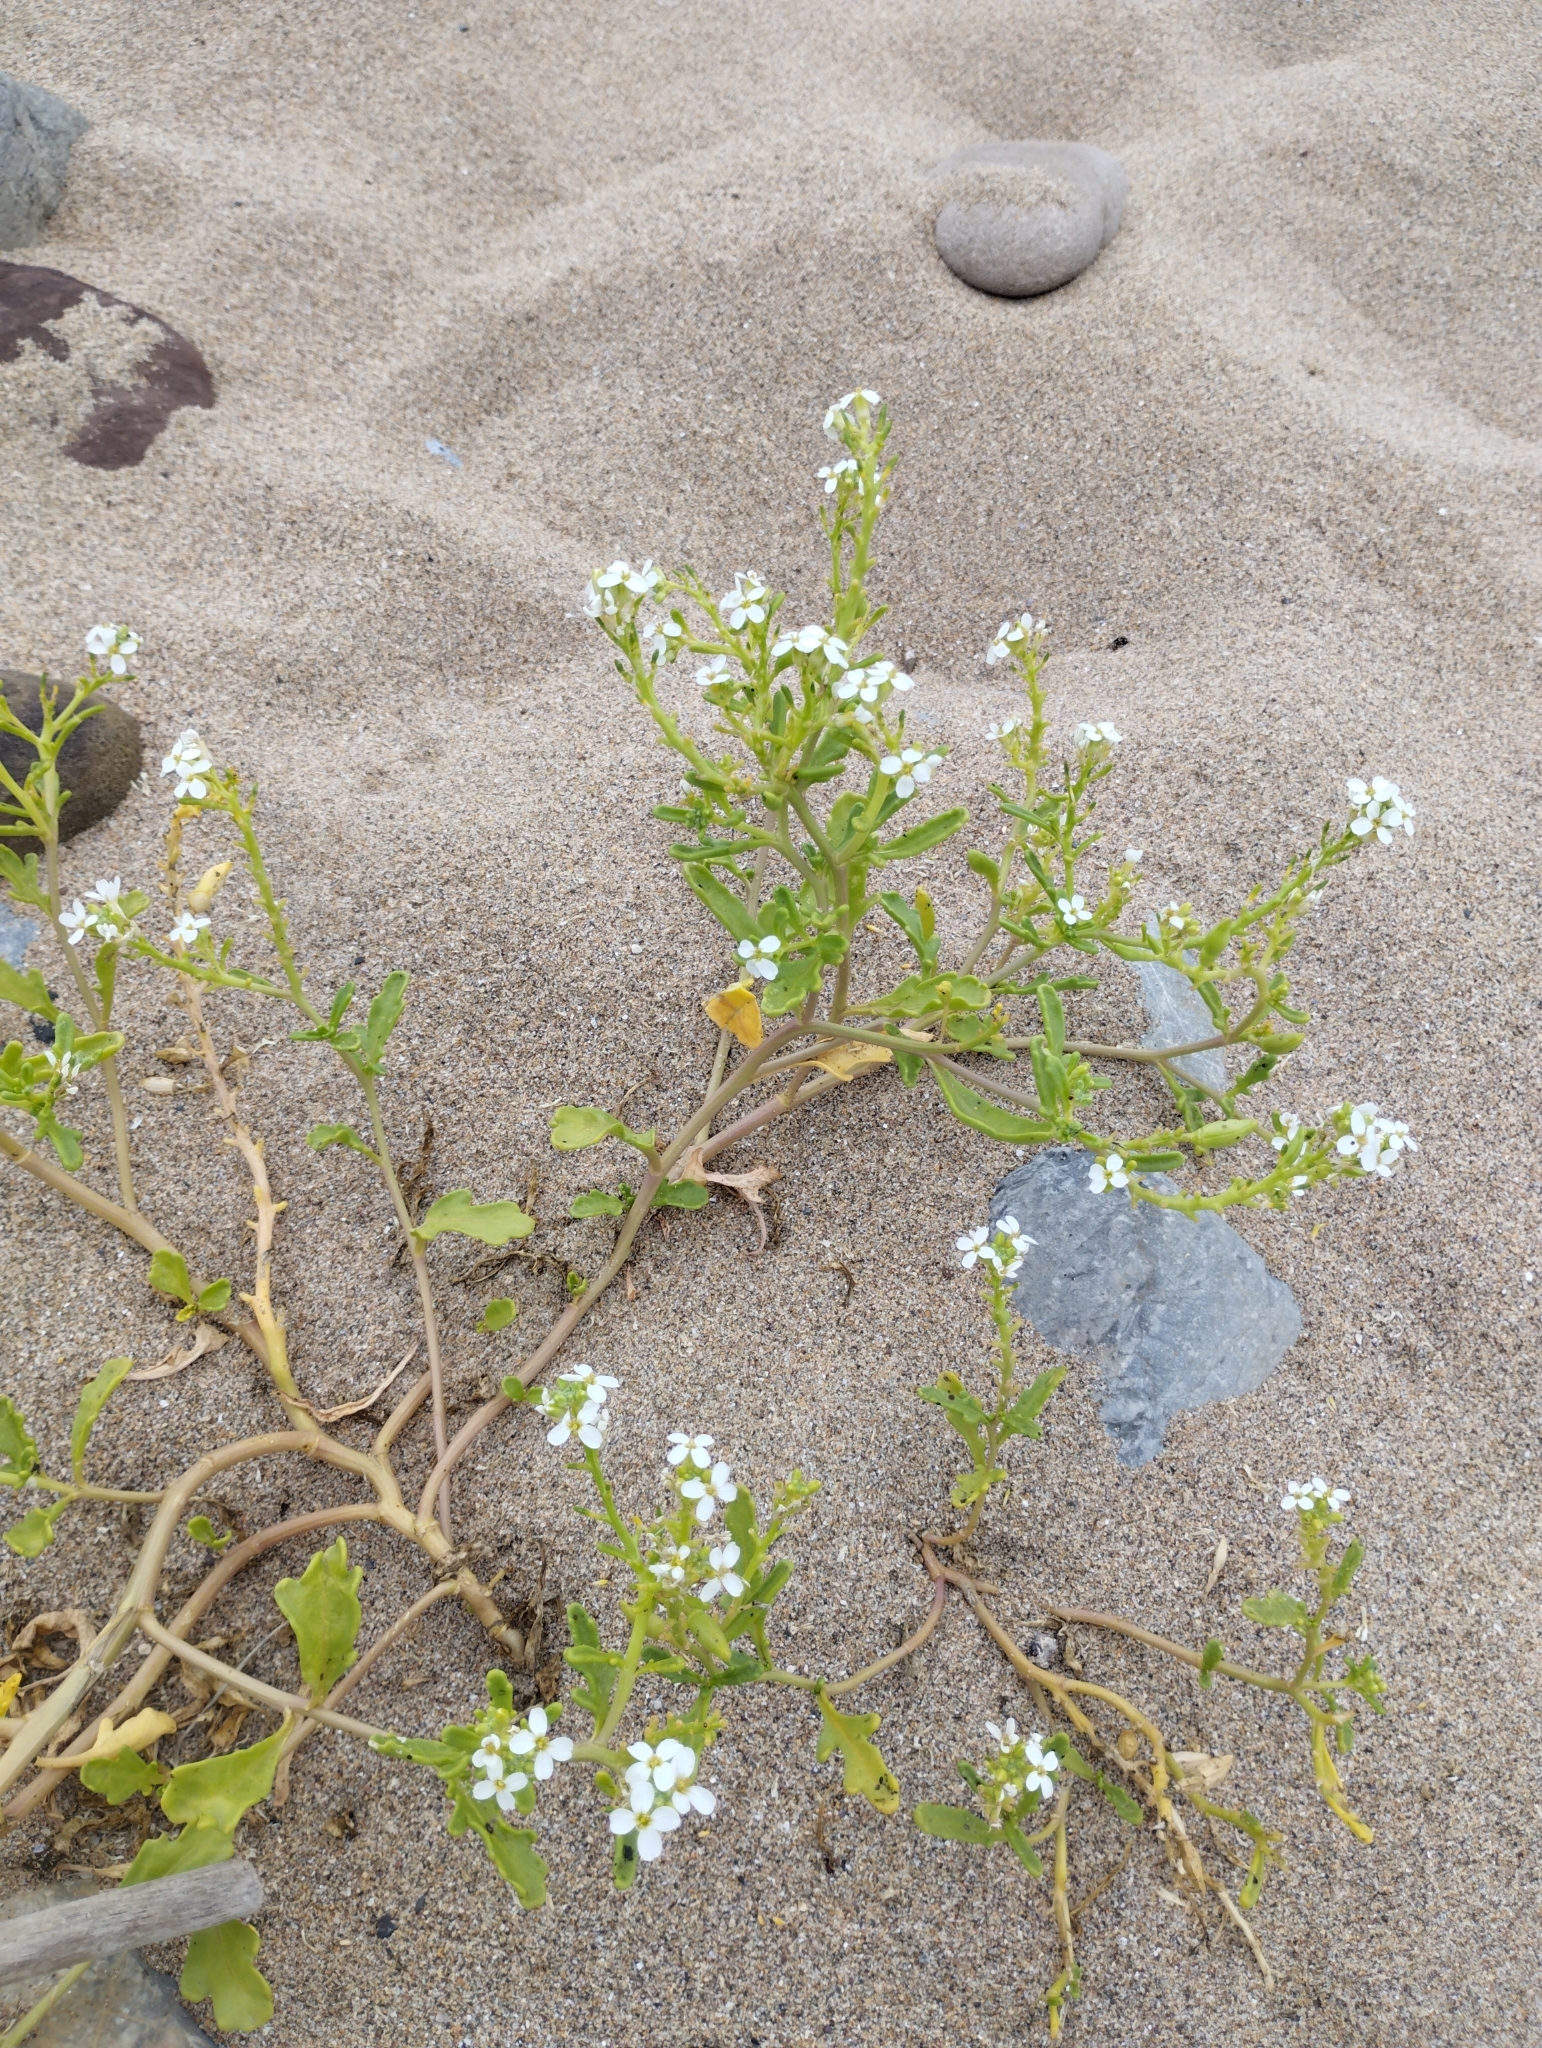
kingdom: Plantae
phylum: Tracheophyta
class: Magnoliopsida
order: Brassicales
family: Brassicaceae
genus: Cakile
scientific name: Cakile maritima
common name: Sea rocket
